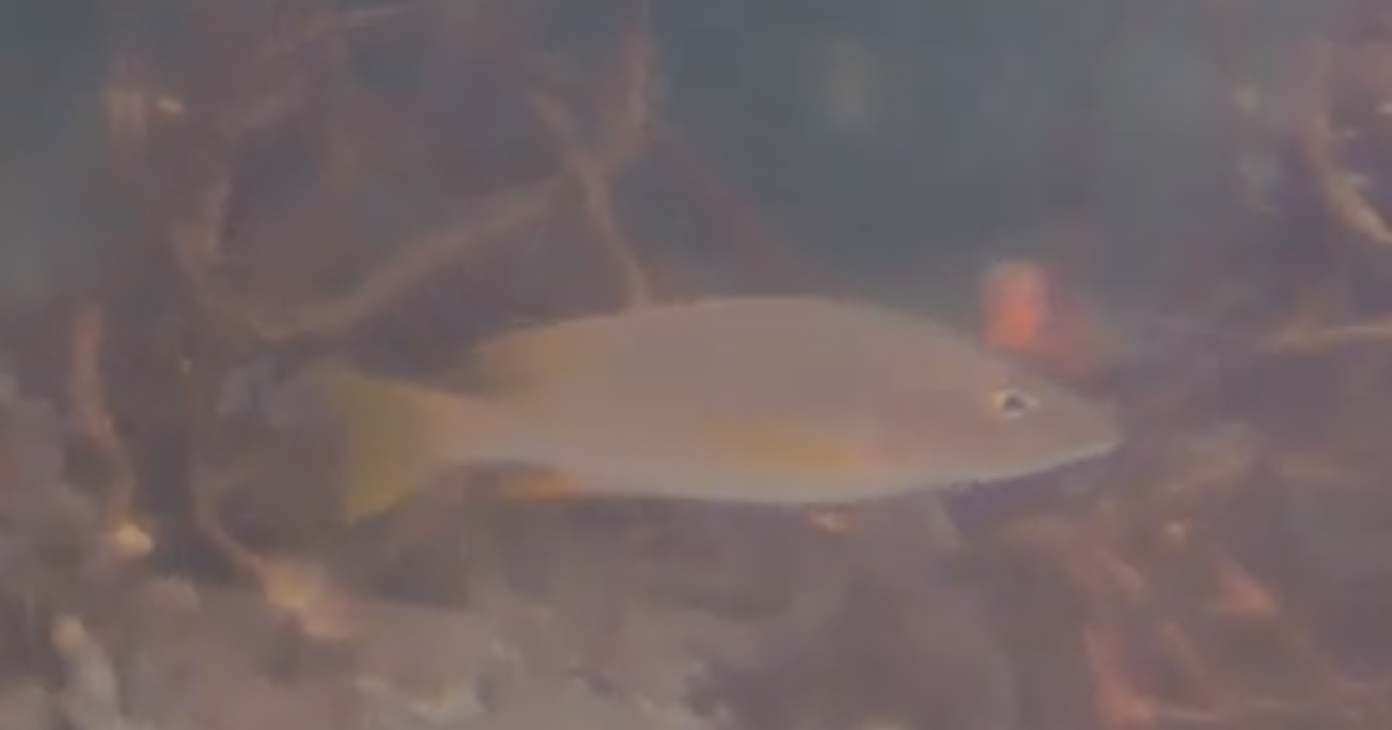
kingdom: Animalia
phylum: Chordata
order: Perciformes
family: Lutjanidae
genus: Lutjanus
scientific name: Lutjanus apodus
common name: Schoolmaster
